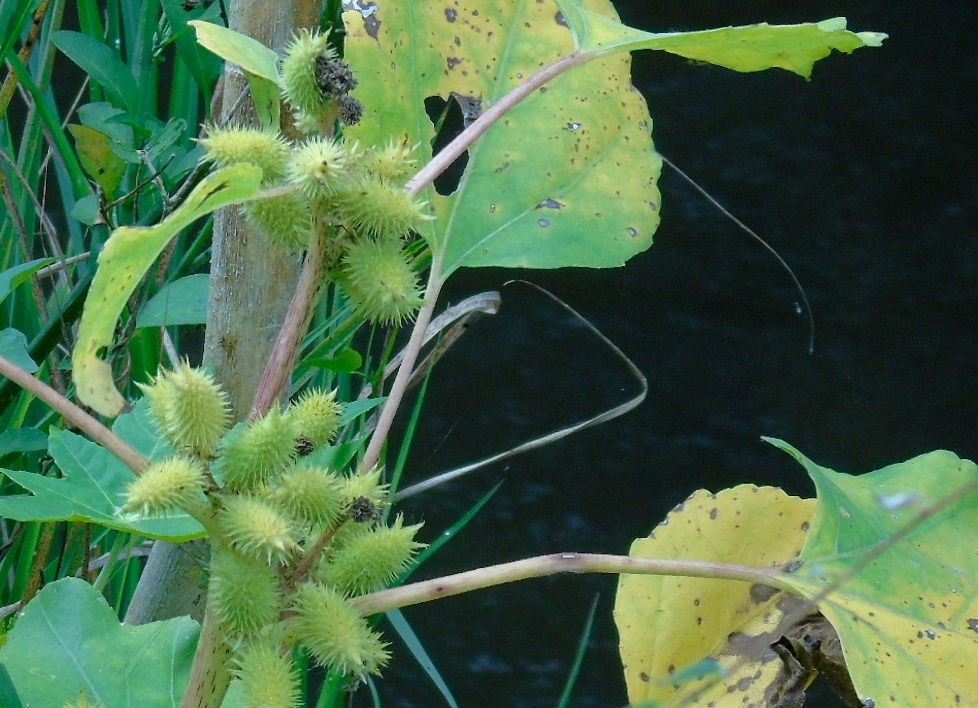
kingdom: Plantae
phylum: Tracheophyta
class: Magnoliopsida
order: Asterales
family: Asteraceae
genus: Xanthium
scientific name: Xanthium strumarium
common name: Rough cocklebur
